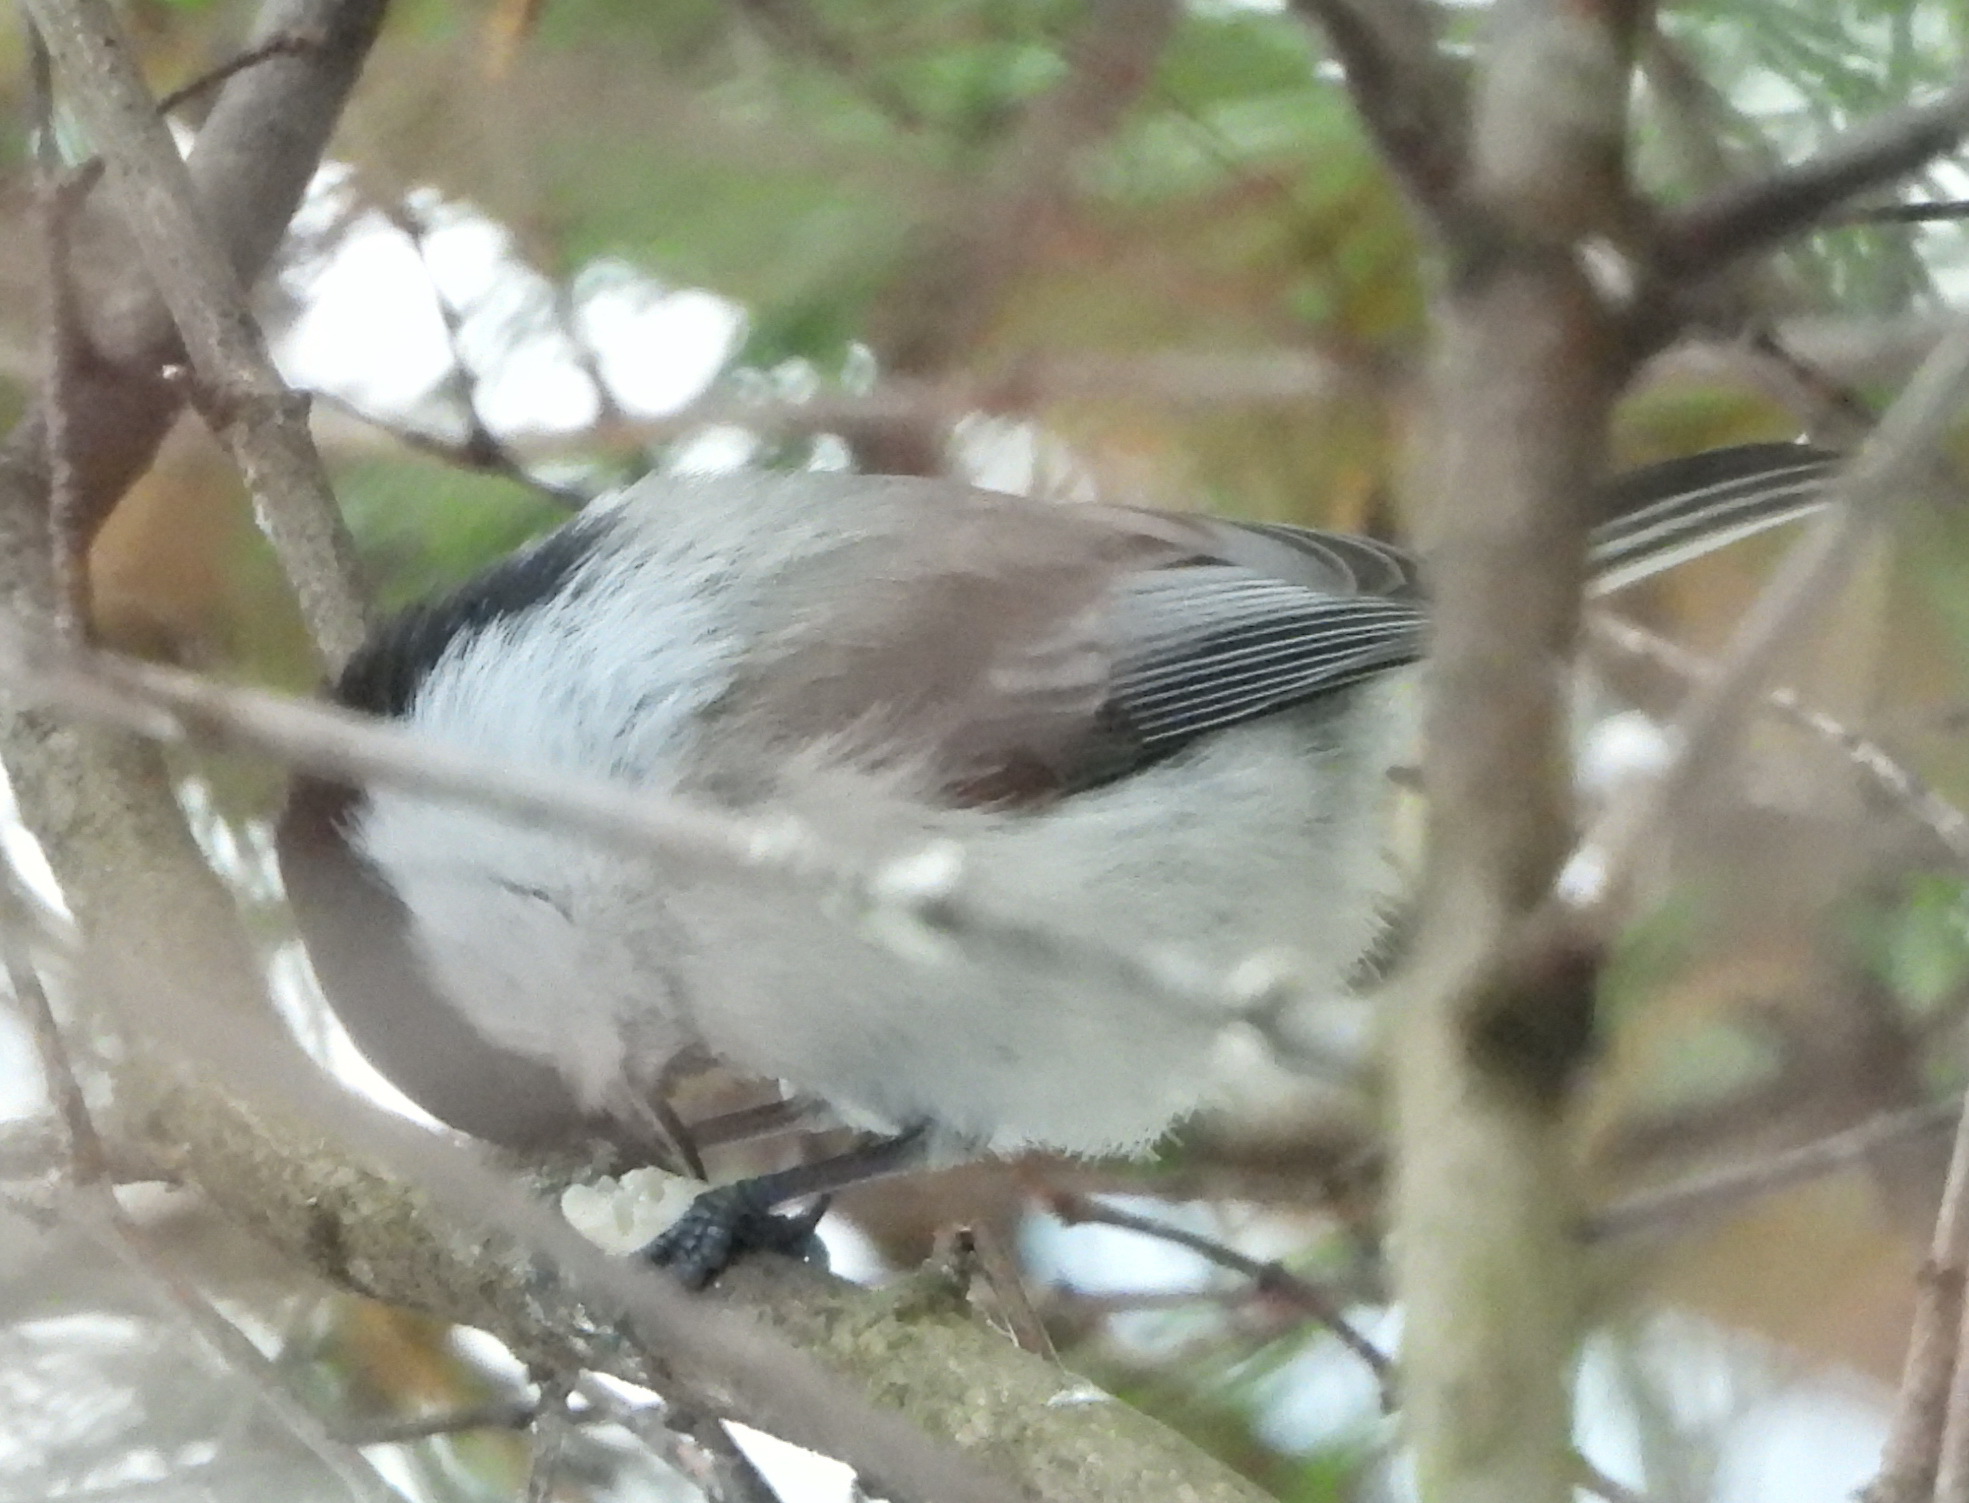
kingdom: Animalia
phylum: Chordata
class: Aves
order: Passeriformes
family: Paridae
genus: Poecile
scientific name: Poecile montanus
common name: Willow tit
